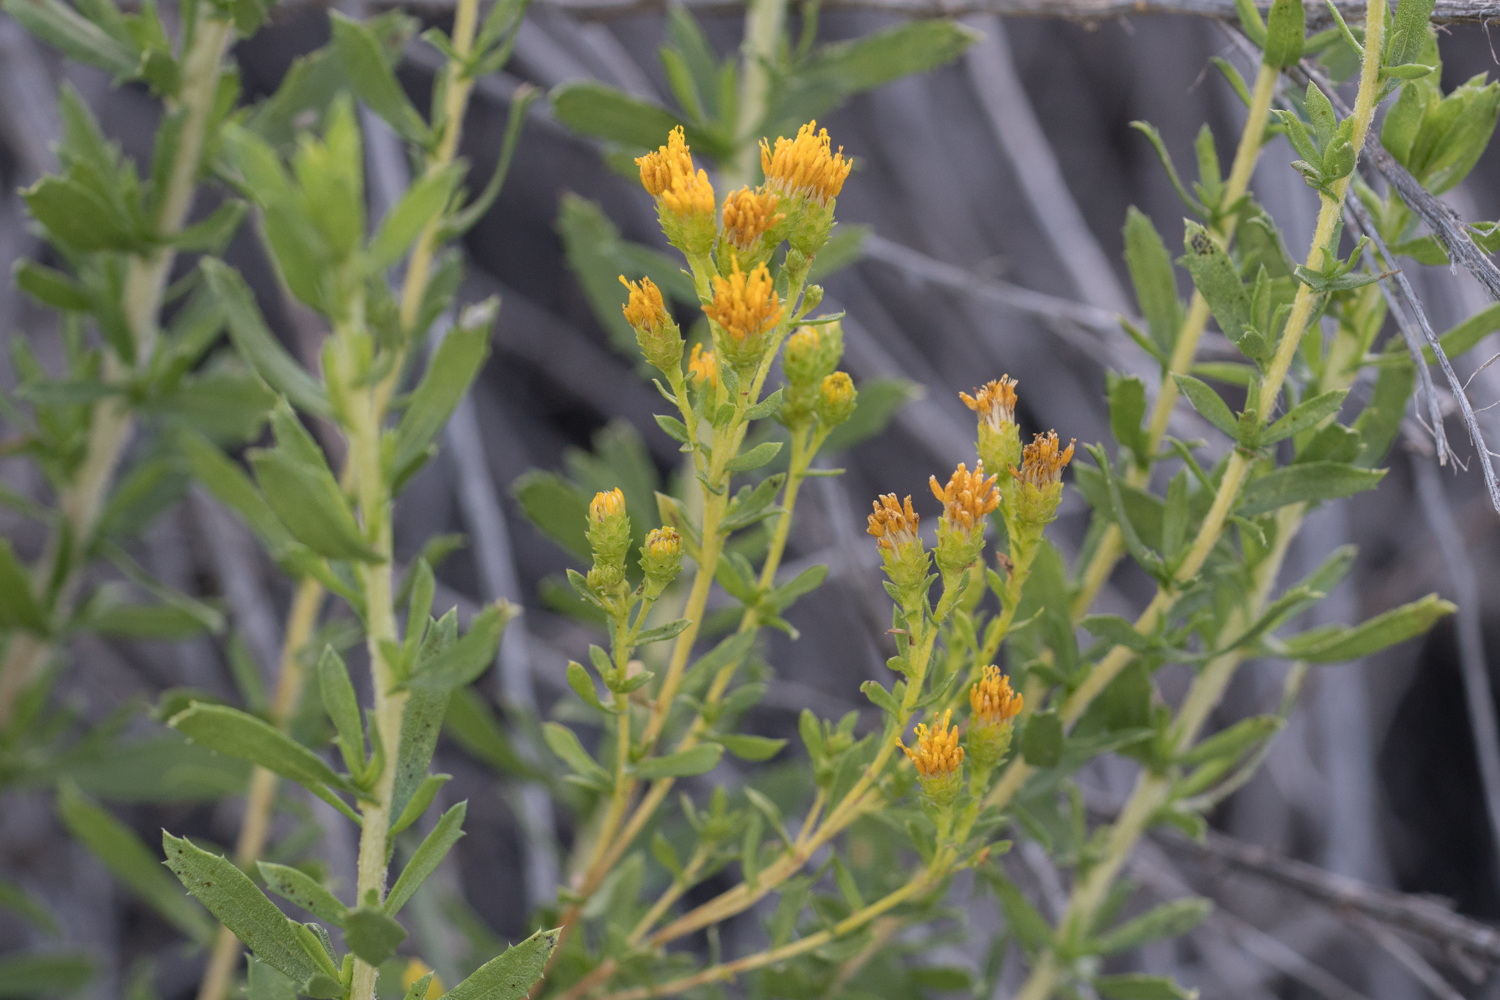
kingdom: Plantae
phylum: Tracheophyta
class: Magnoliopsida
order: Asterales
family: Asteraceae
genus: Isocoma
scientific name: Isocoma menziesii
